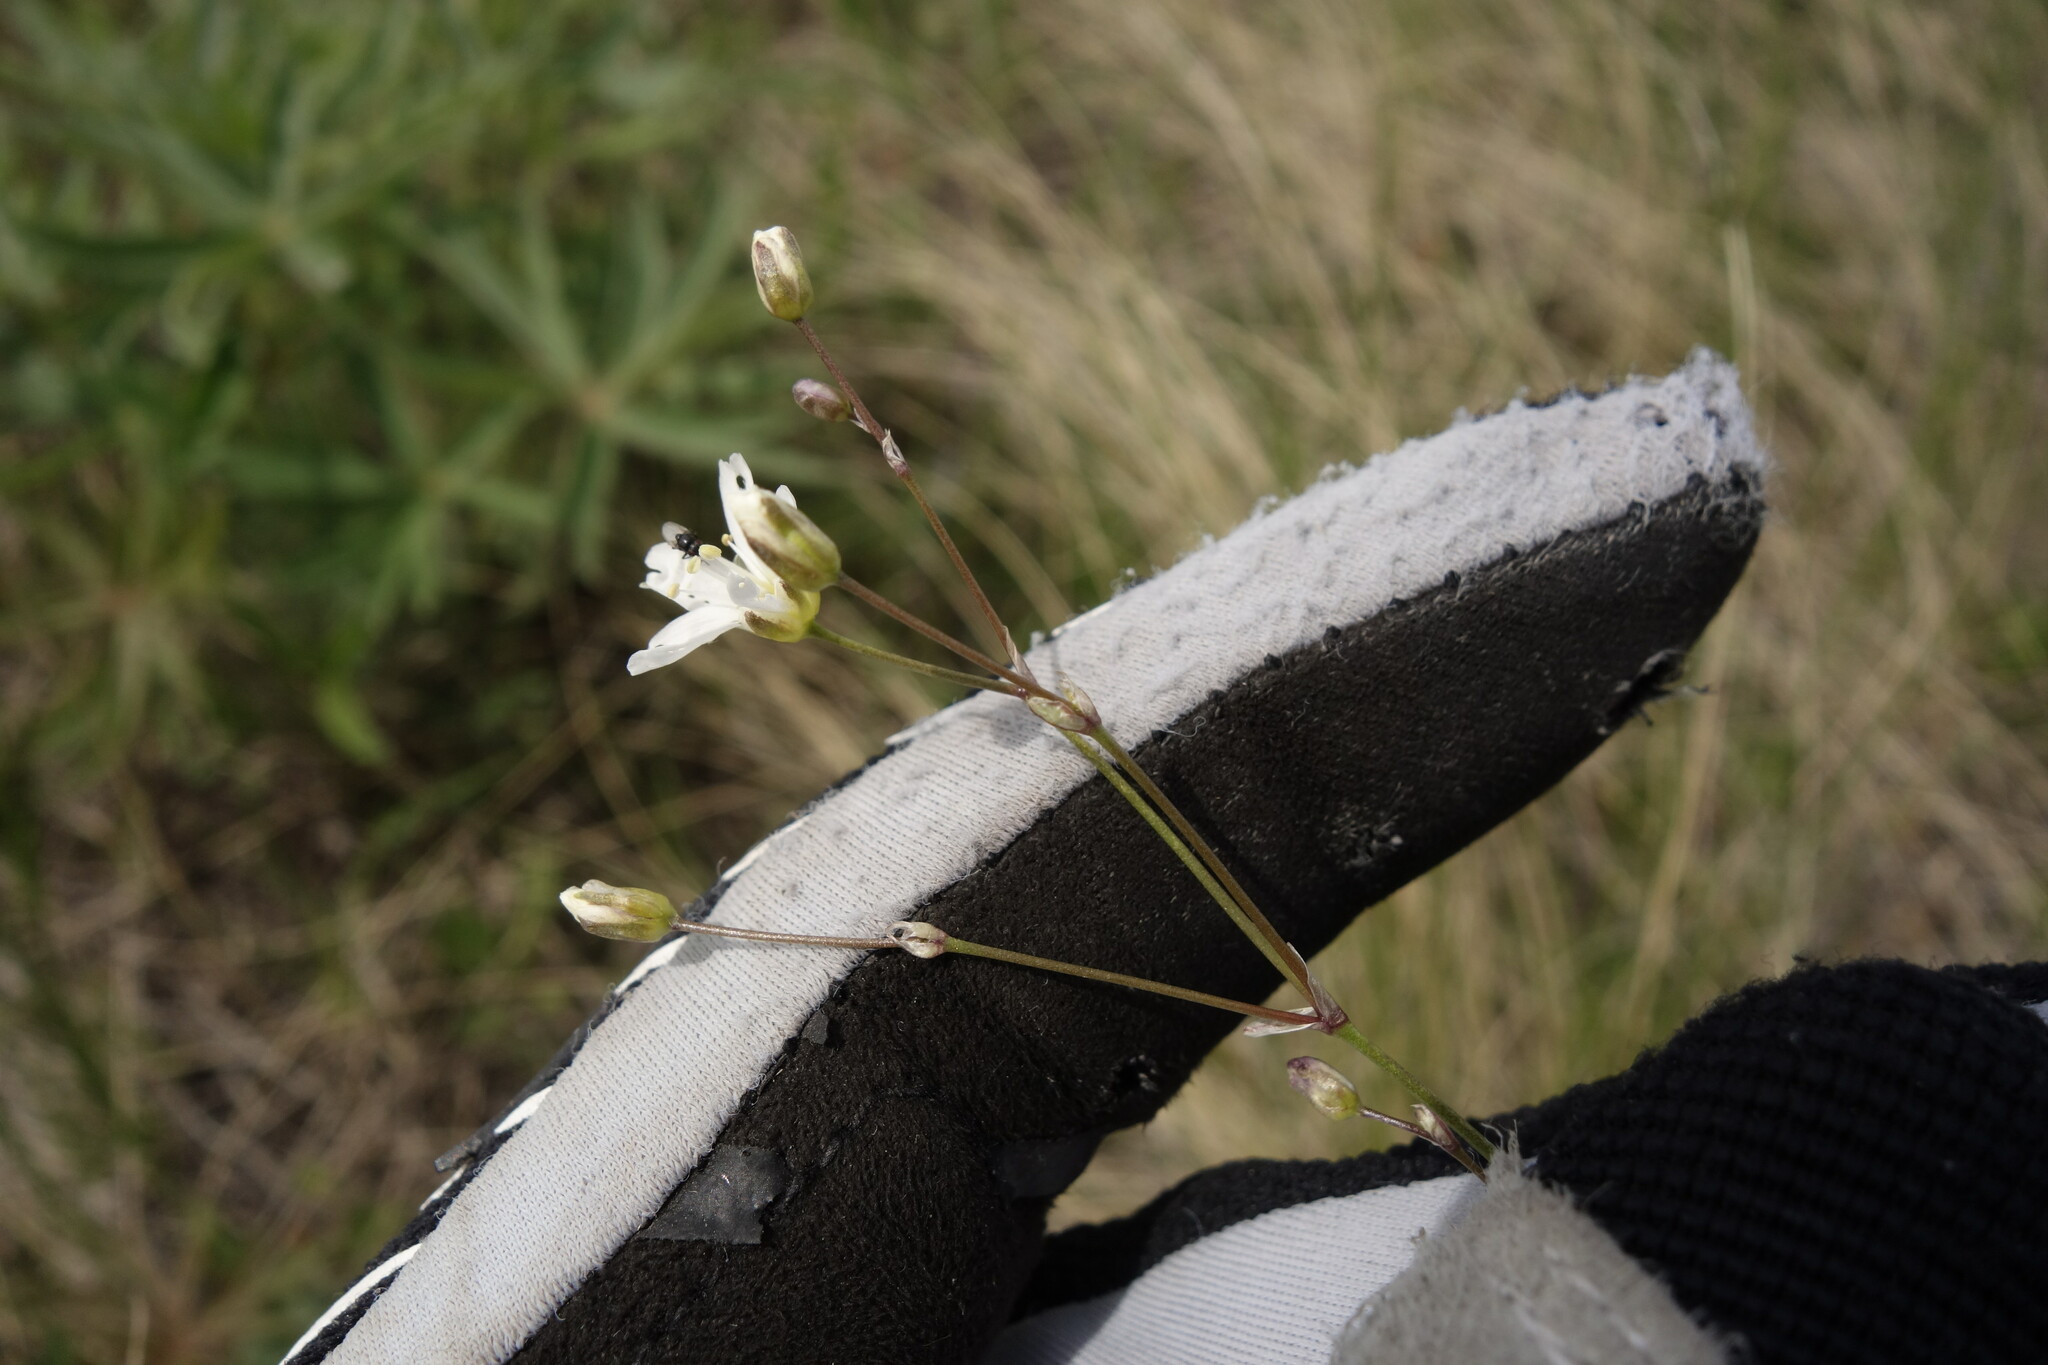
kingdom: Plantae
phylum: Tracheophyta
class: Magnoliopsida
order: Caryophyllales
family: Caryophyllaceae
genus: Eremogone
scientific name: Eremogone saxatilis
